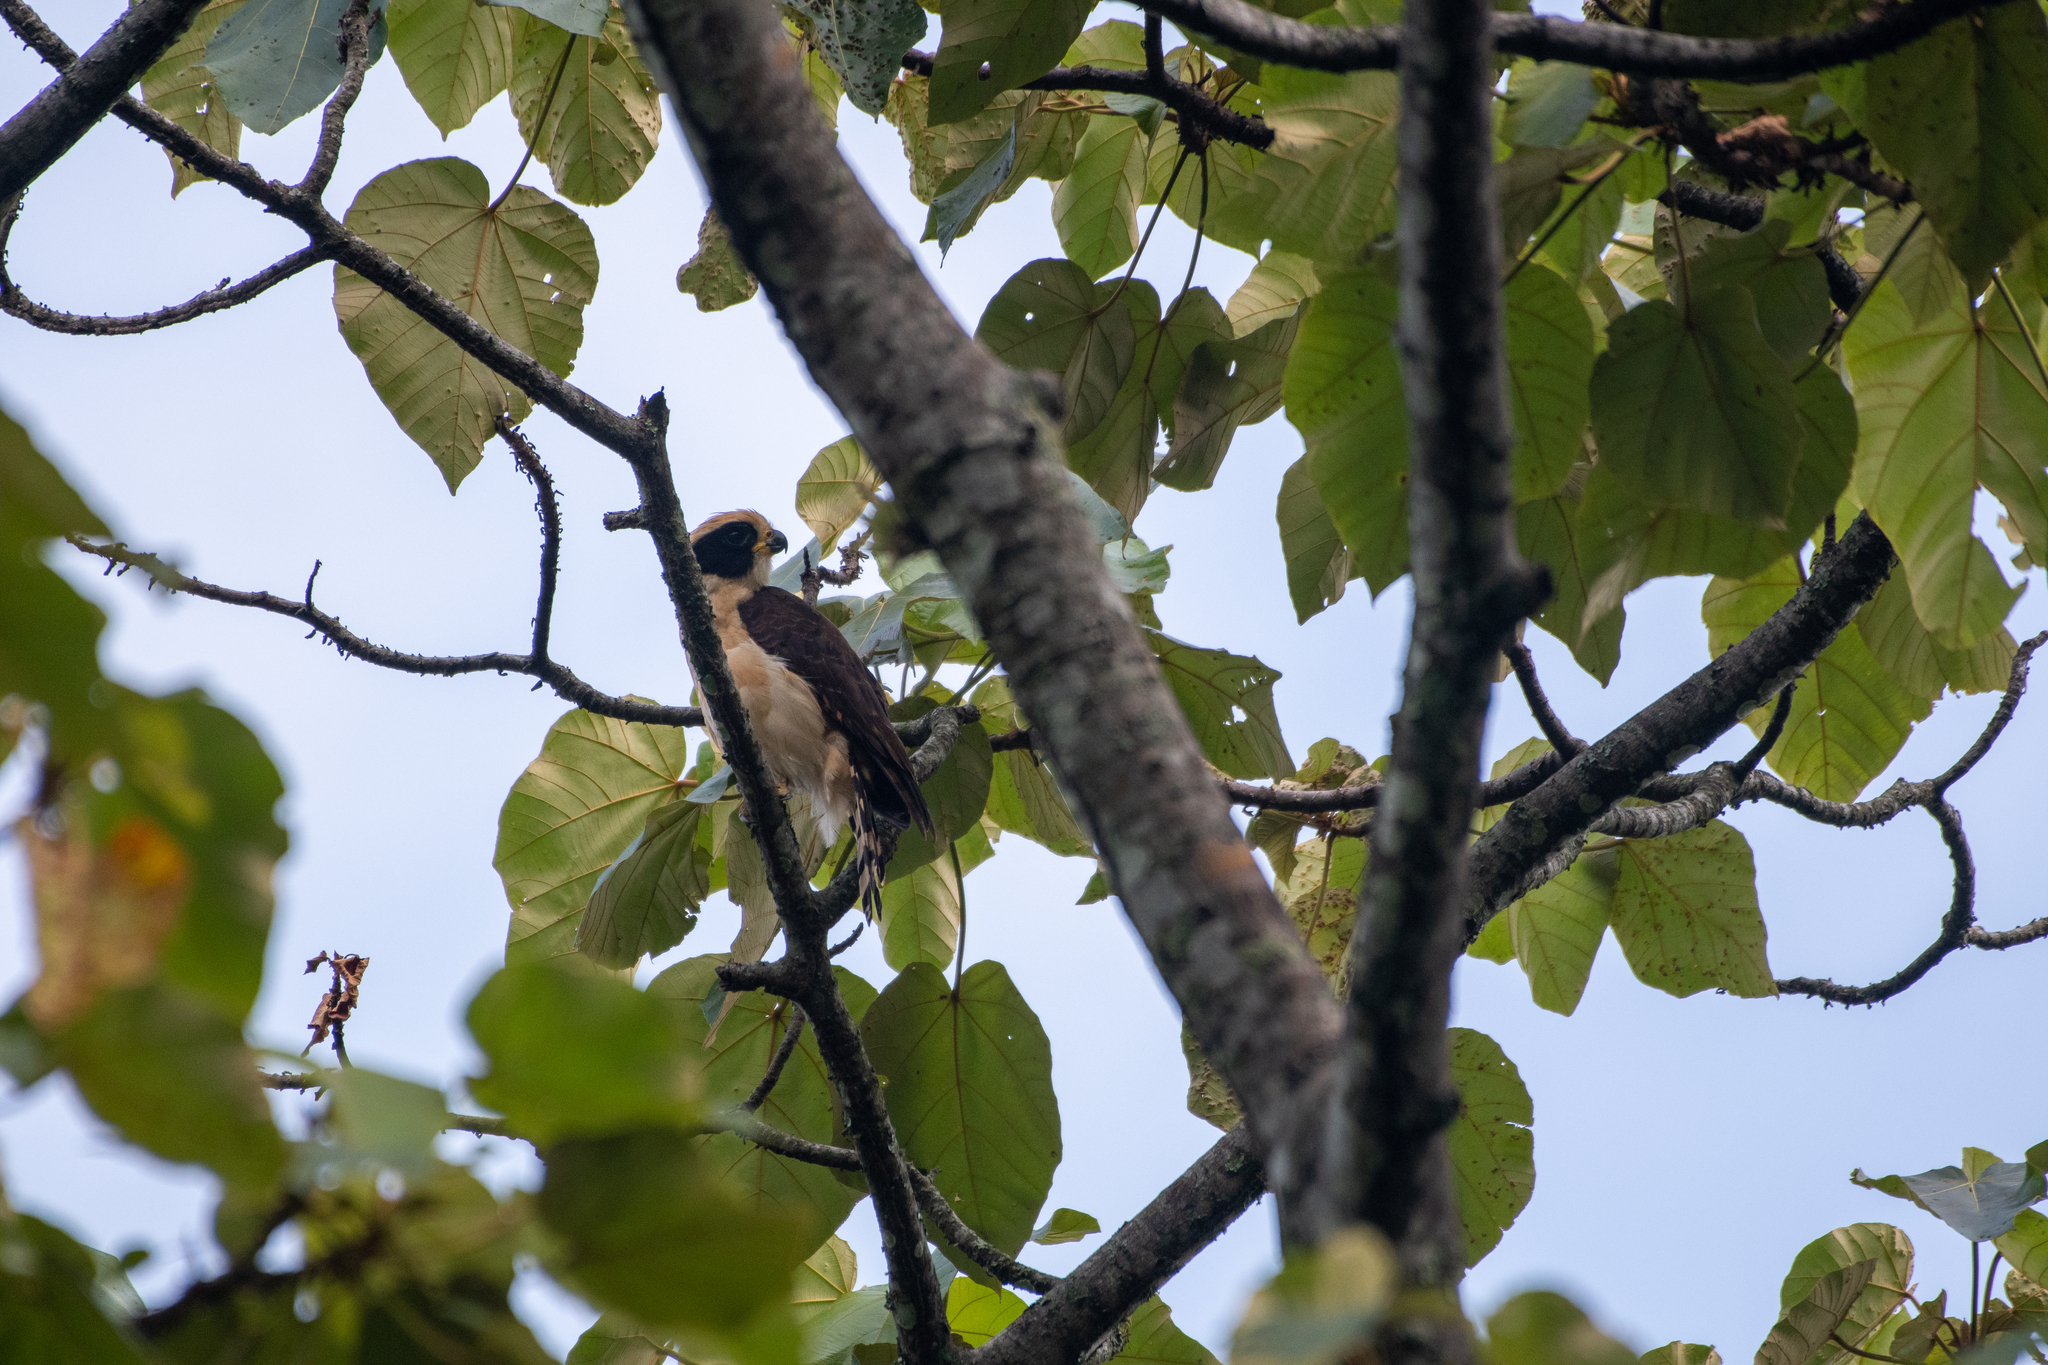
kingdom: Animalia
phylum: Chordata
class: Aves
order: Falconiformes
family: Falconidae
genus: Herpetotheres
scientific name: Herpetotheres cachinnans
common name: Laughing falcon
